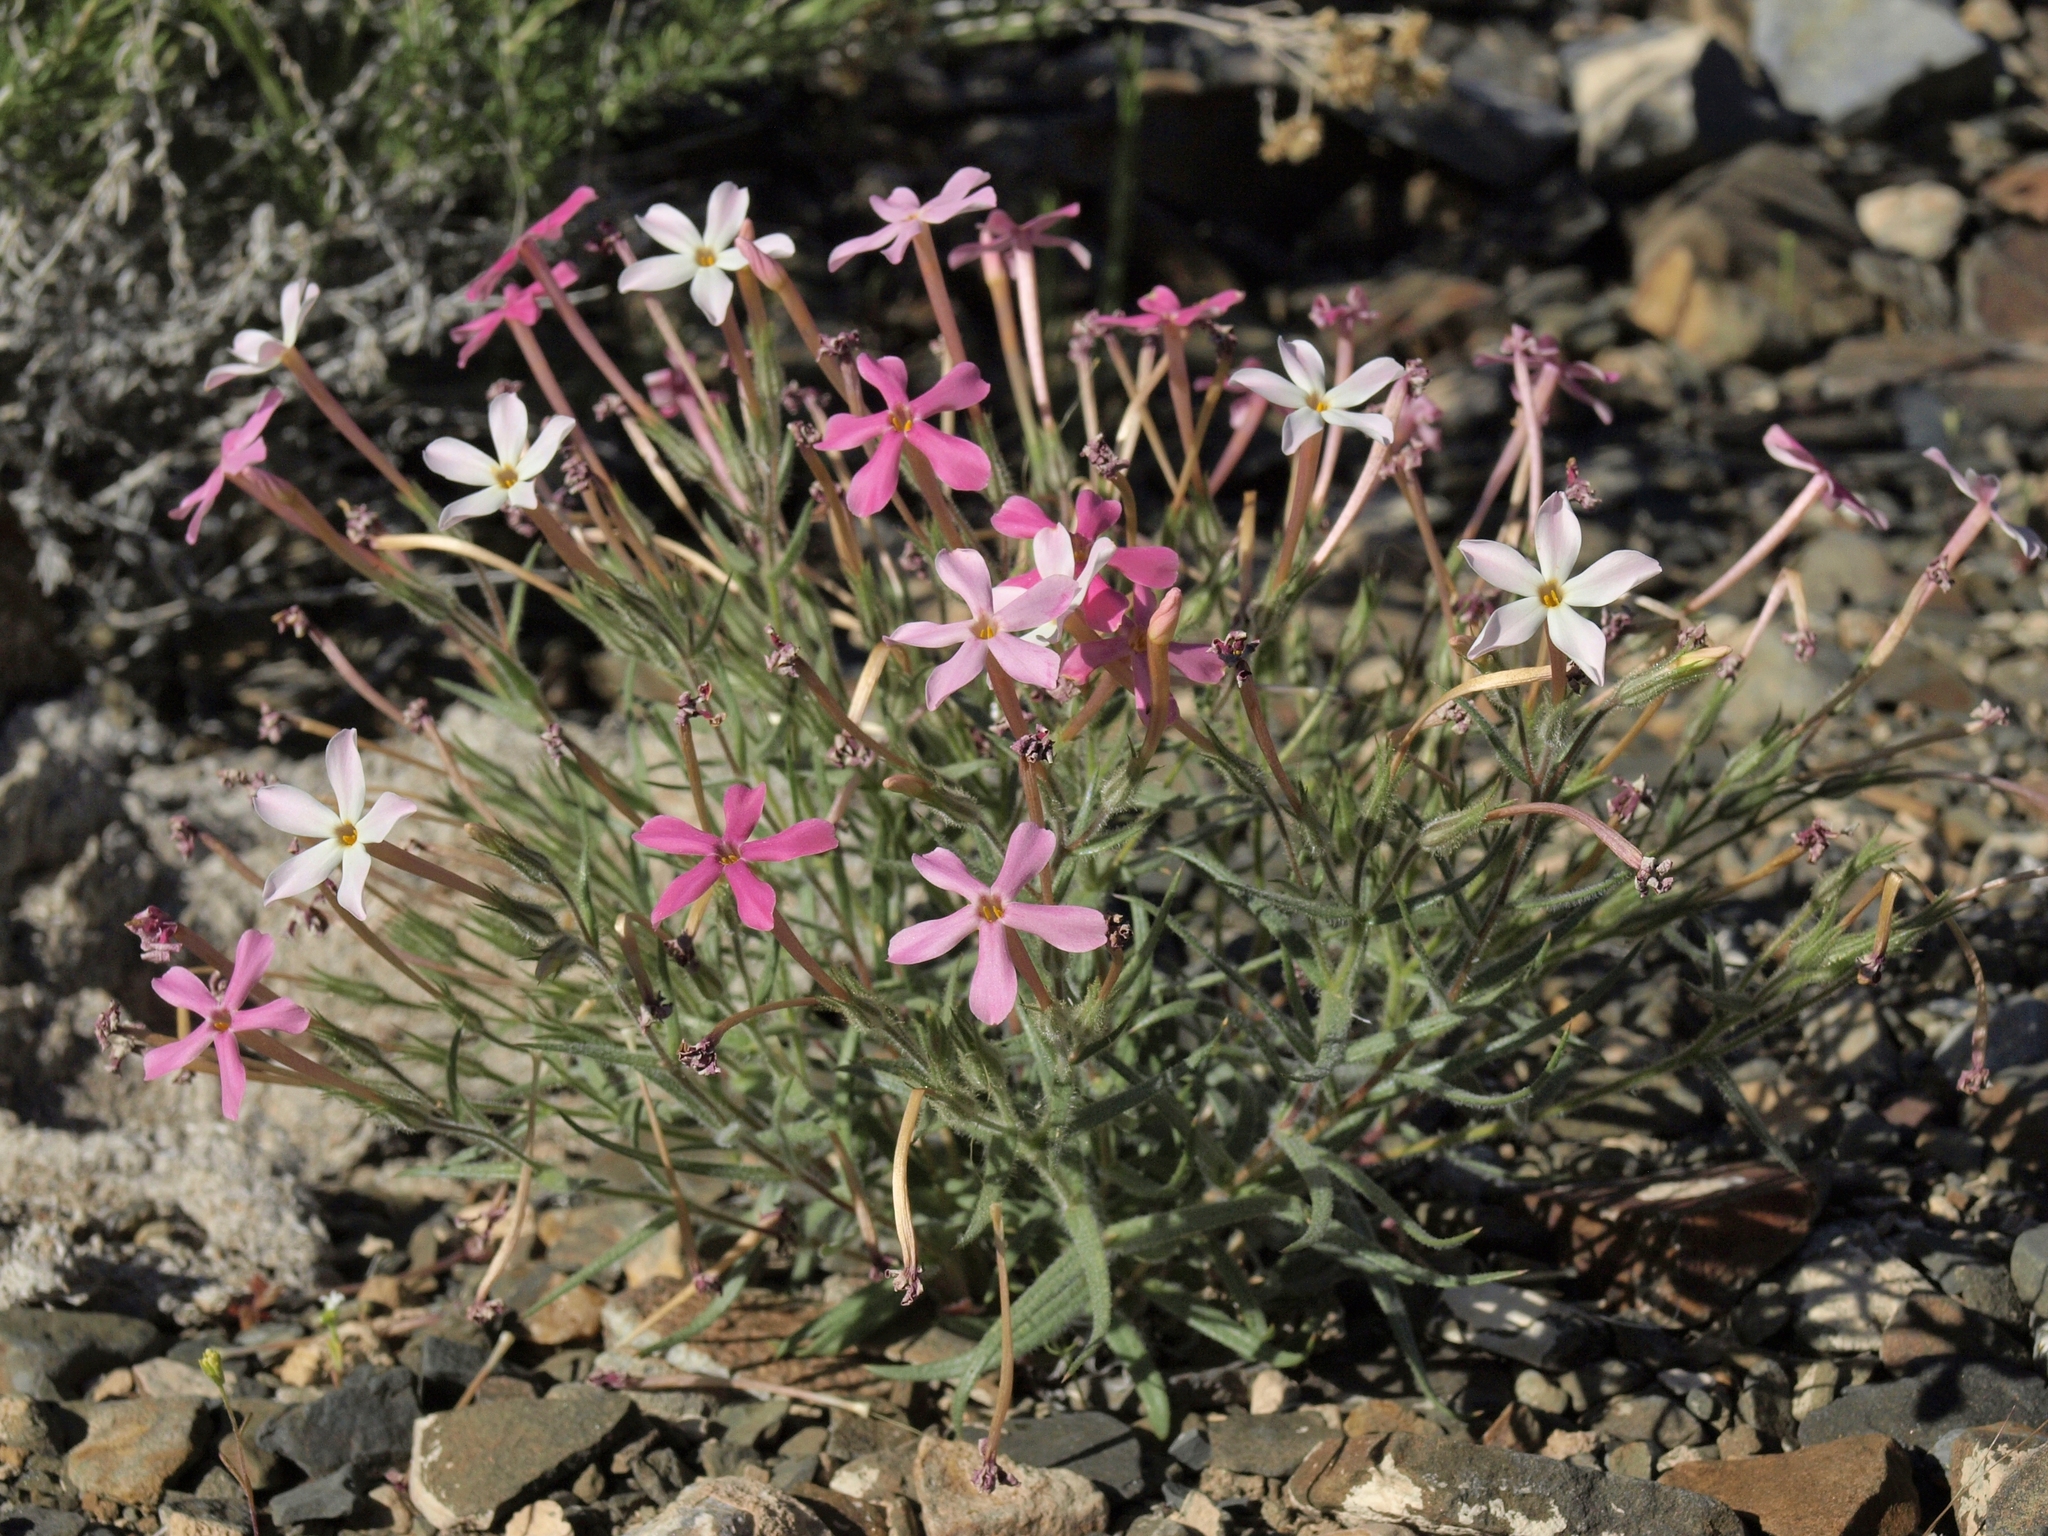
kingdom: Plantae
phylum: Tracheophyta
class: Magnoliopsida
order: Ericales
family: Polemoniaceae
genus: Phlox
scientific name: Phlox longifolia
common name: Longleaf phlox
